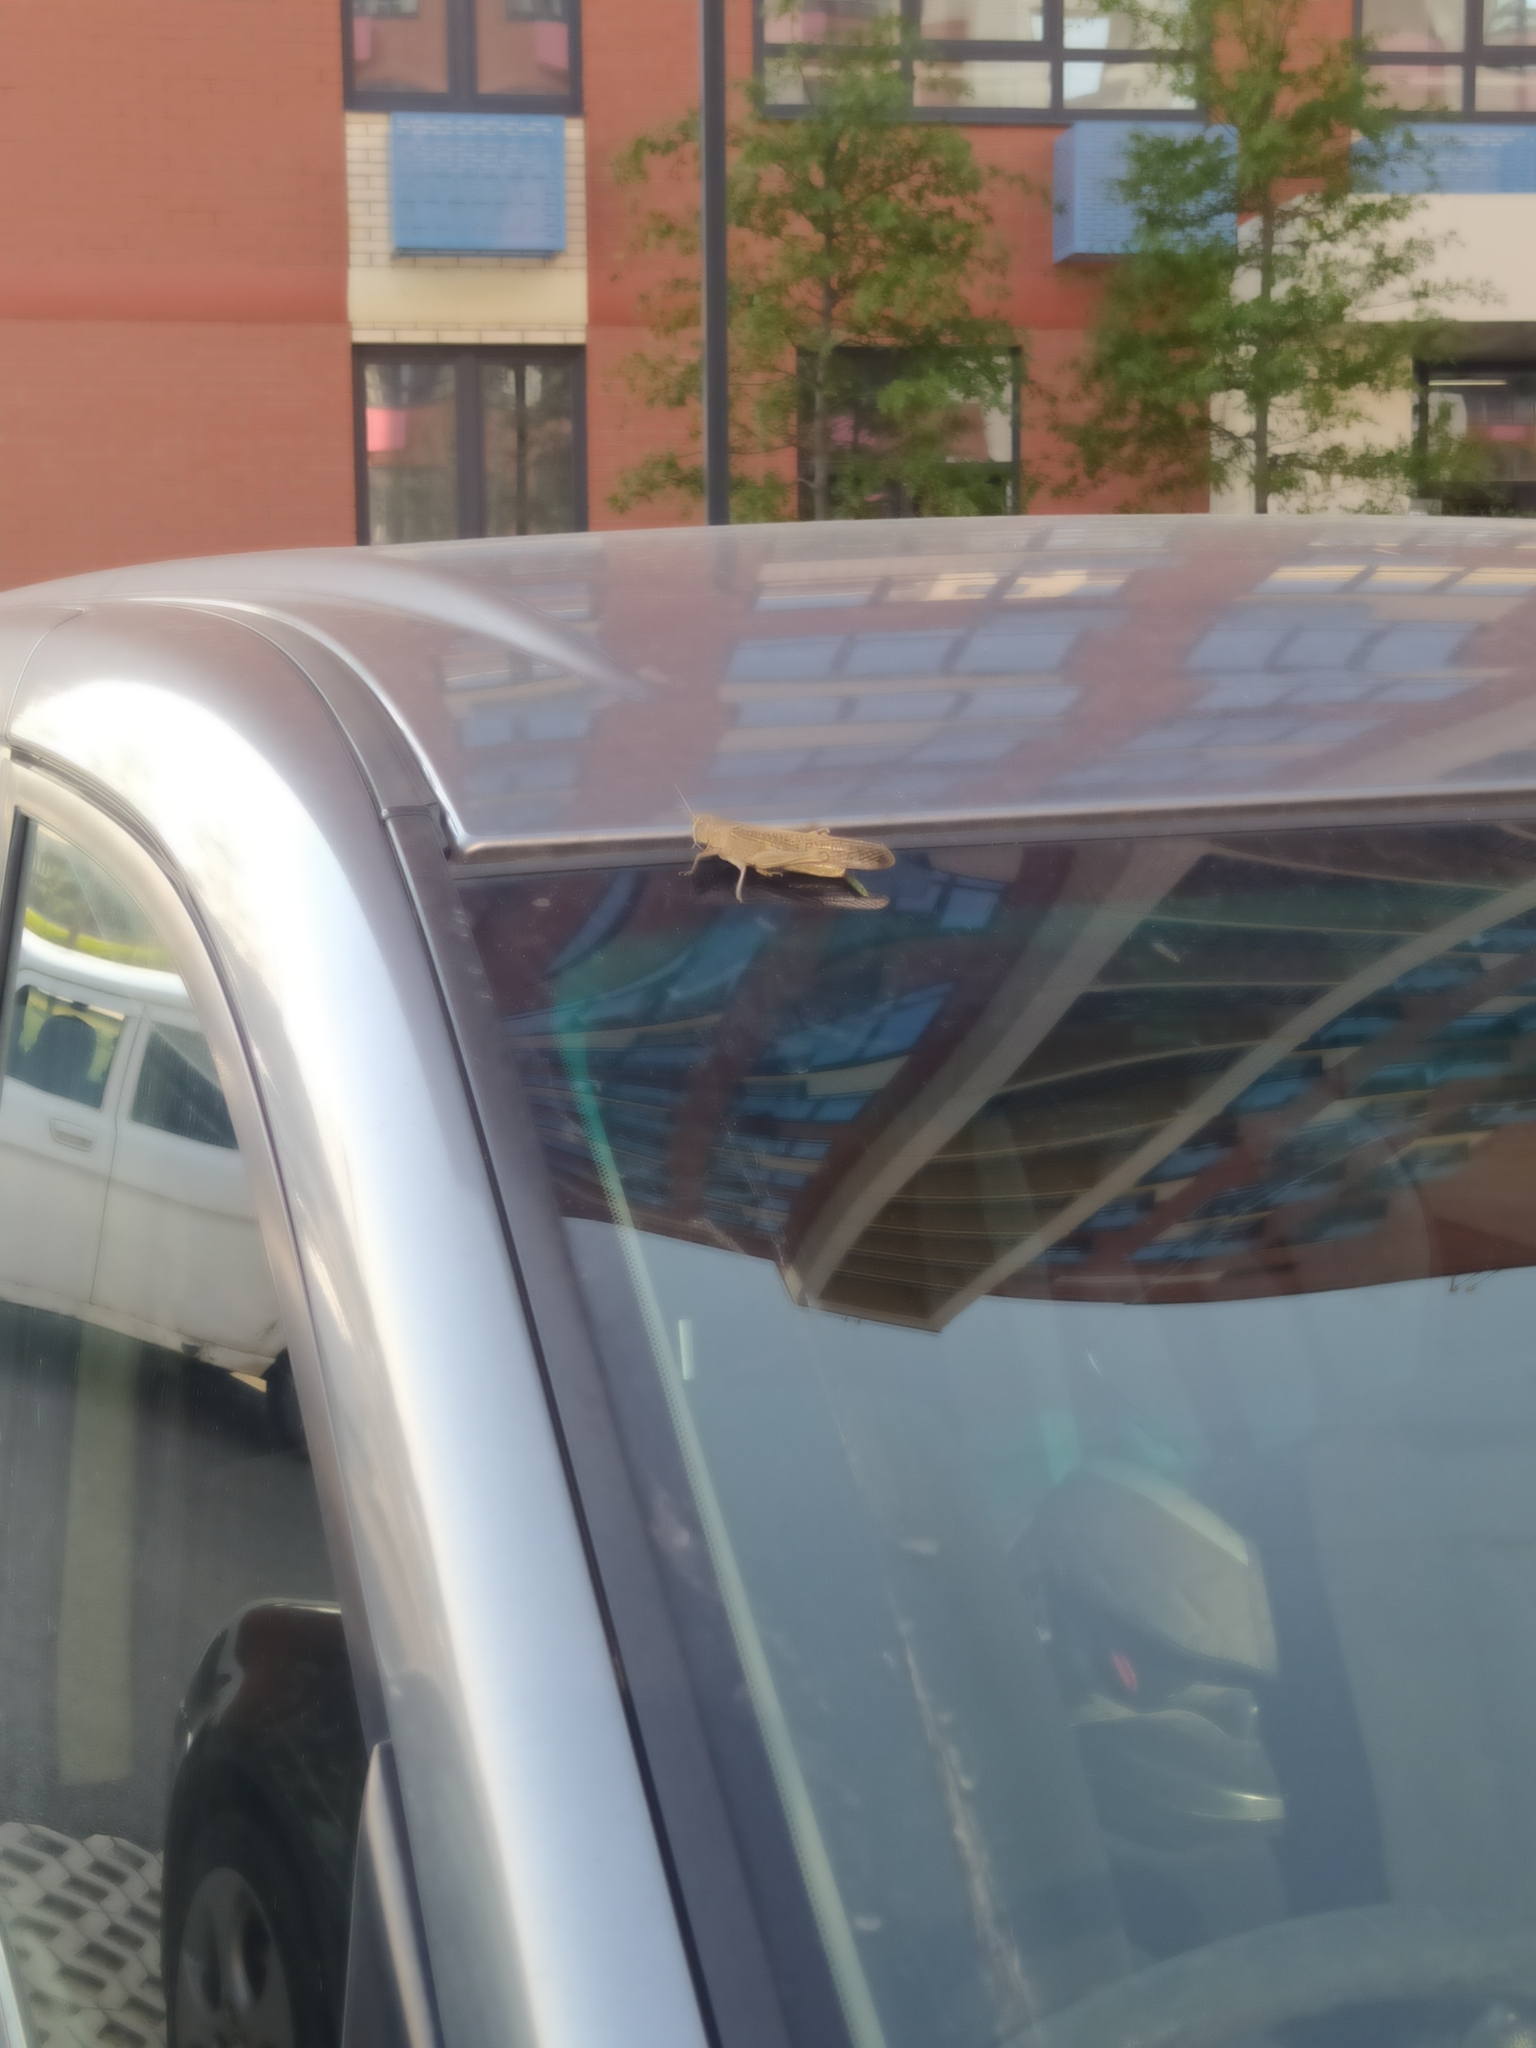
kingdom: Animalia
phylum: Arthropoda
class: Insecta
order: Orthoptera
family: Acrididae
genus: Locusta
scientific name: Locusta migratoria
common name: Migratory locust
